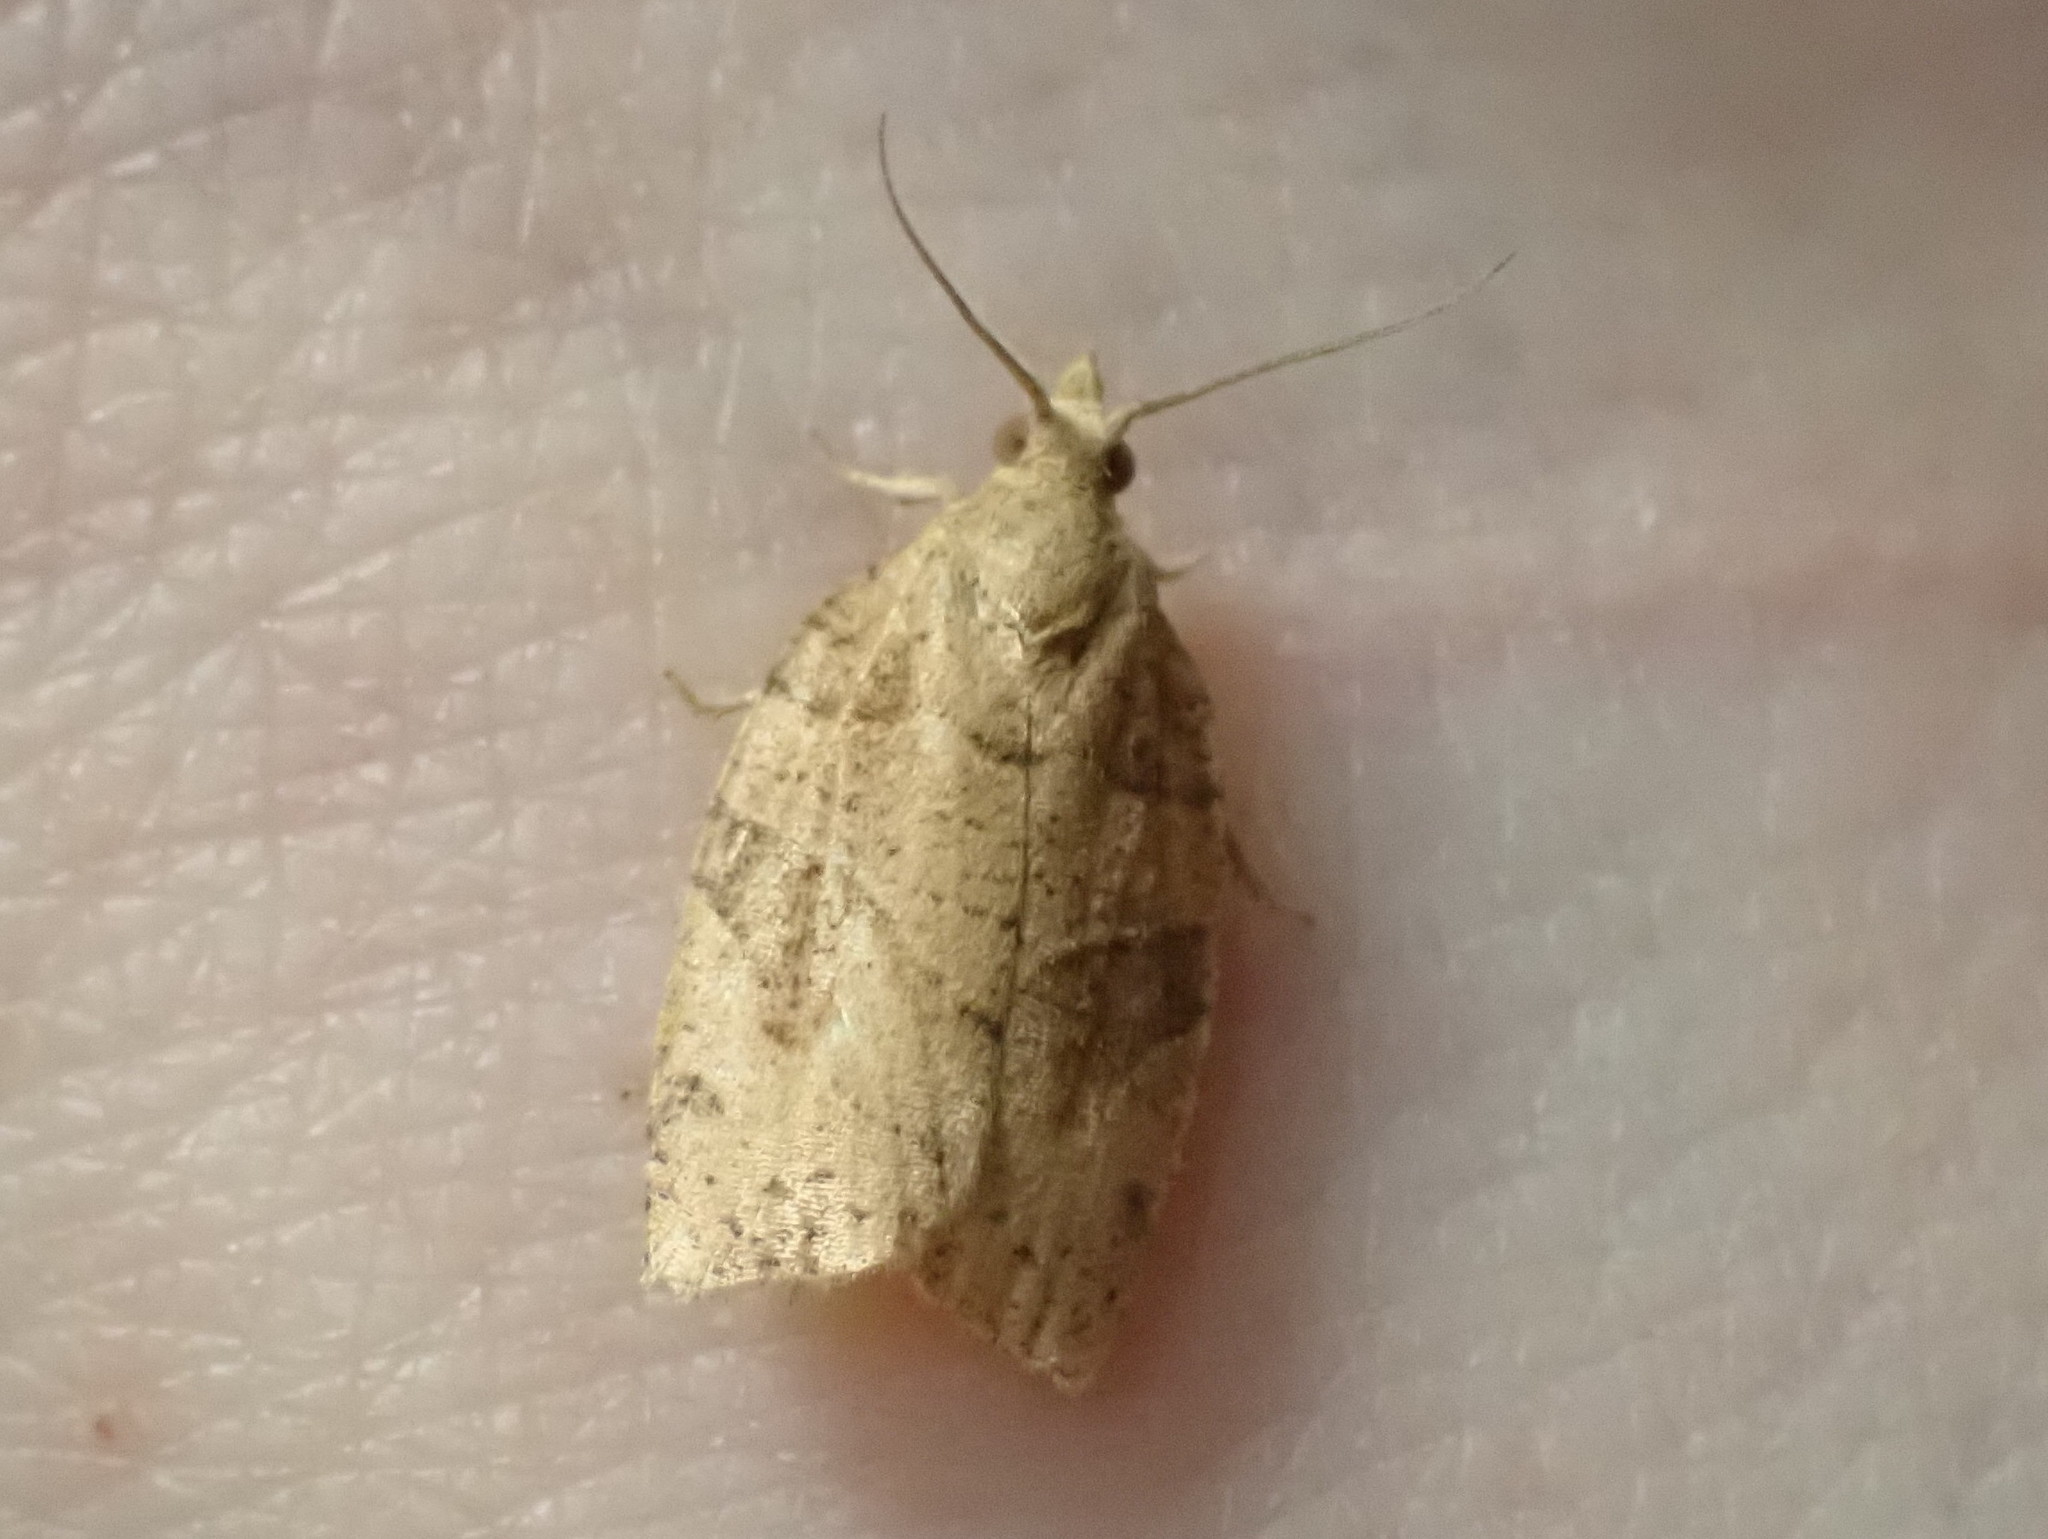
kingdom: Animalia
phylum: Arthropoda
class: Insecta
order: Lepidoptera
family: Tortricidae
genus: Pandemis
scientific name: Pandemis lamprosana
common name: Woodgrain leafroller moth
